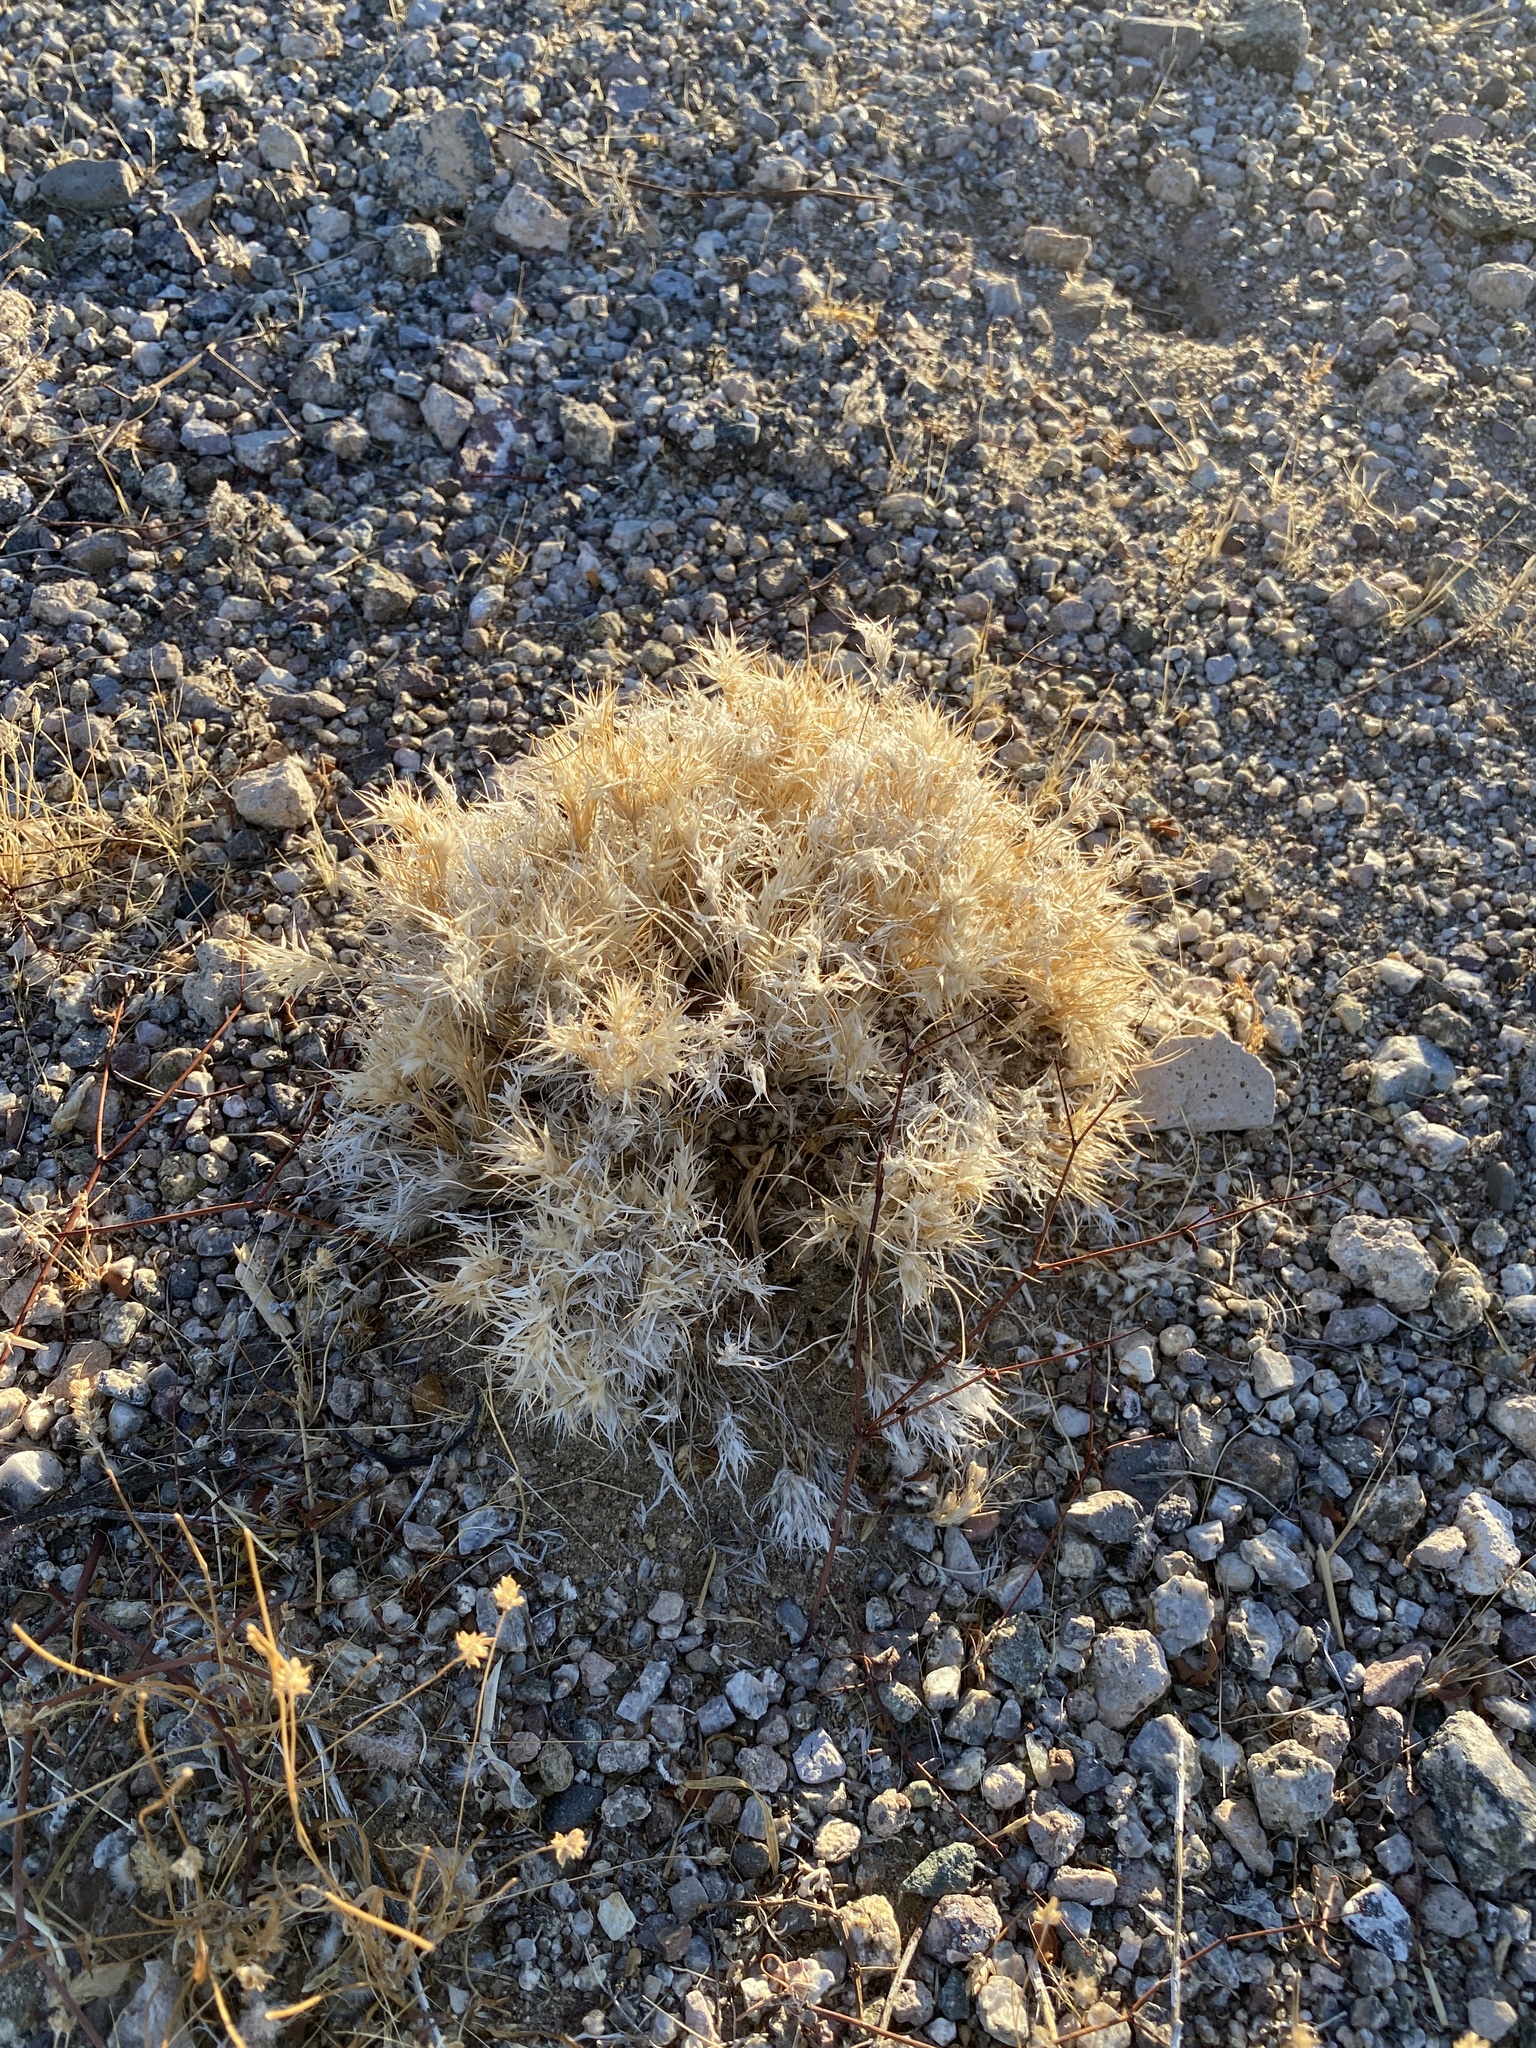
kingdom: Plantae
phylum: Tracheophyta
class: Liliopsida
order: Poales
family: Poaceae
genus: Dasyochloa
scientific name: Dasyochloa pulchella
